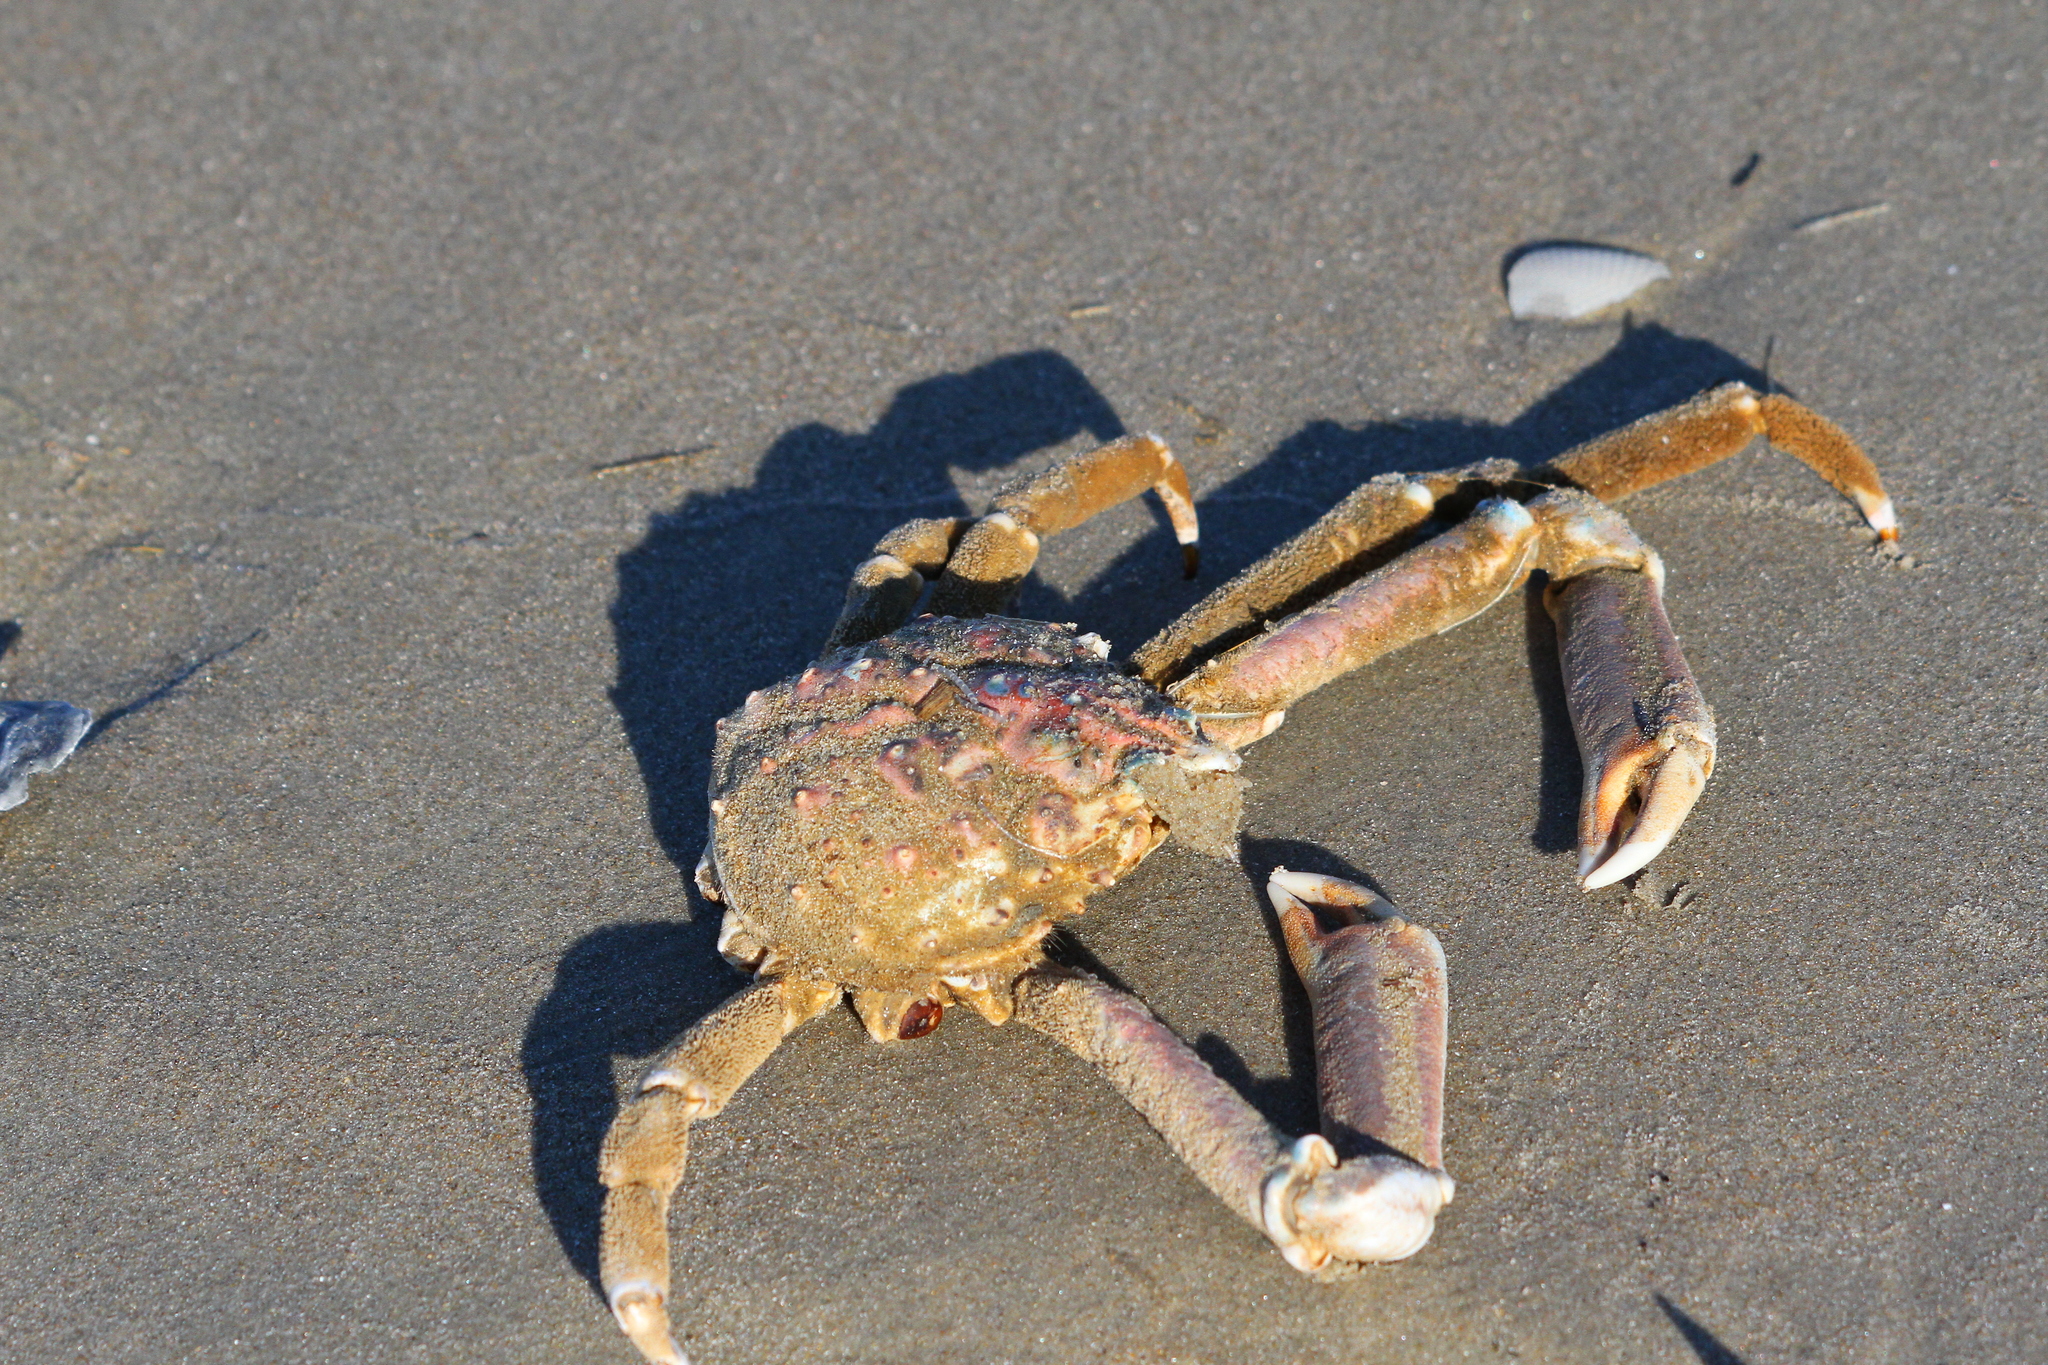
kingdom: Animalia
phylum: Arthropoda
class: Malacostraca
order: Decapoda
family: Epialtidae
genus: Libinia
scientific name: Libinia emarginata
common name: Common spider crab
